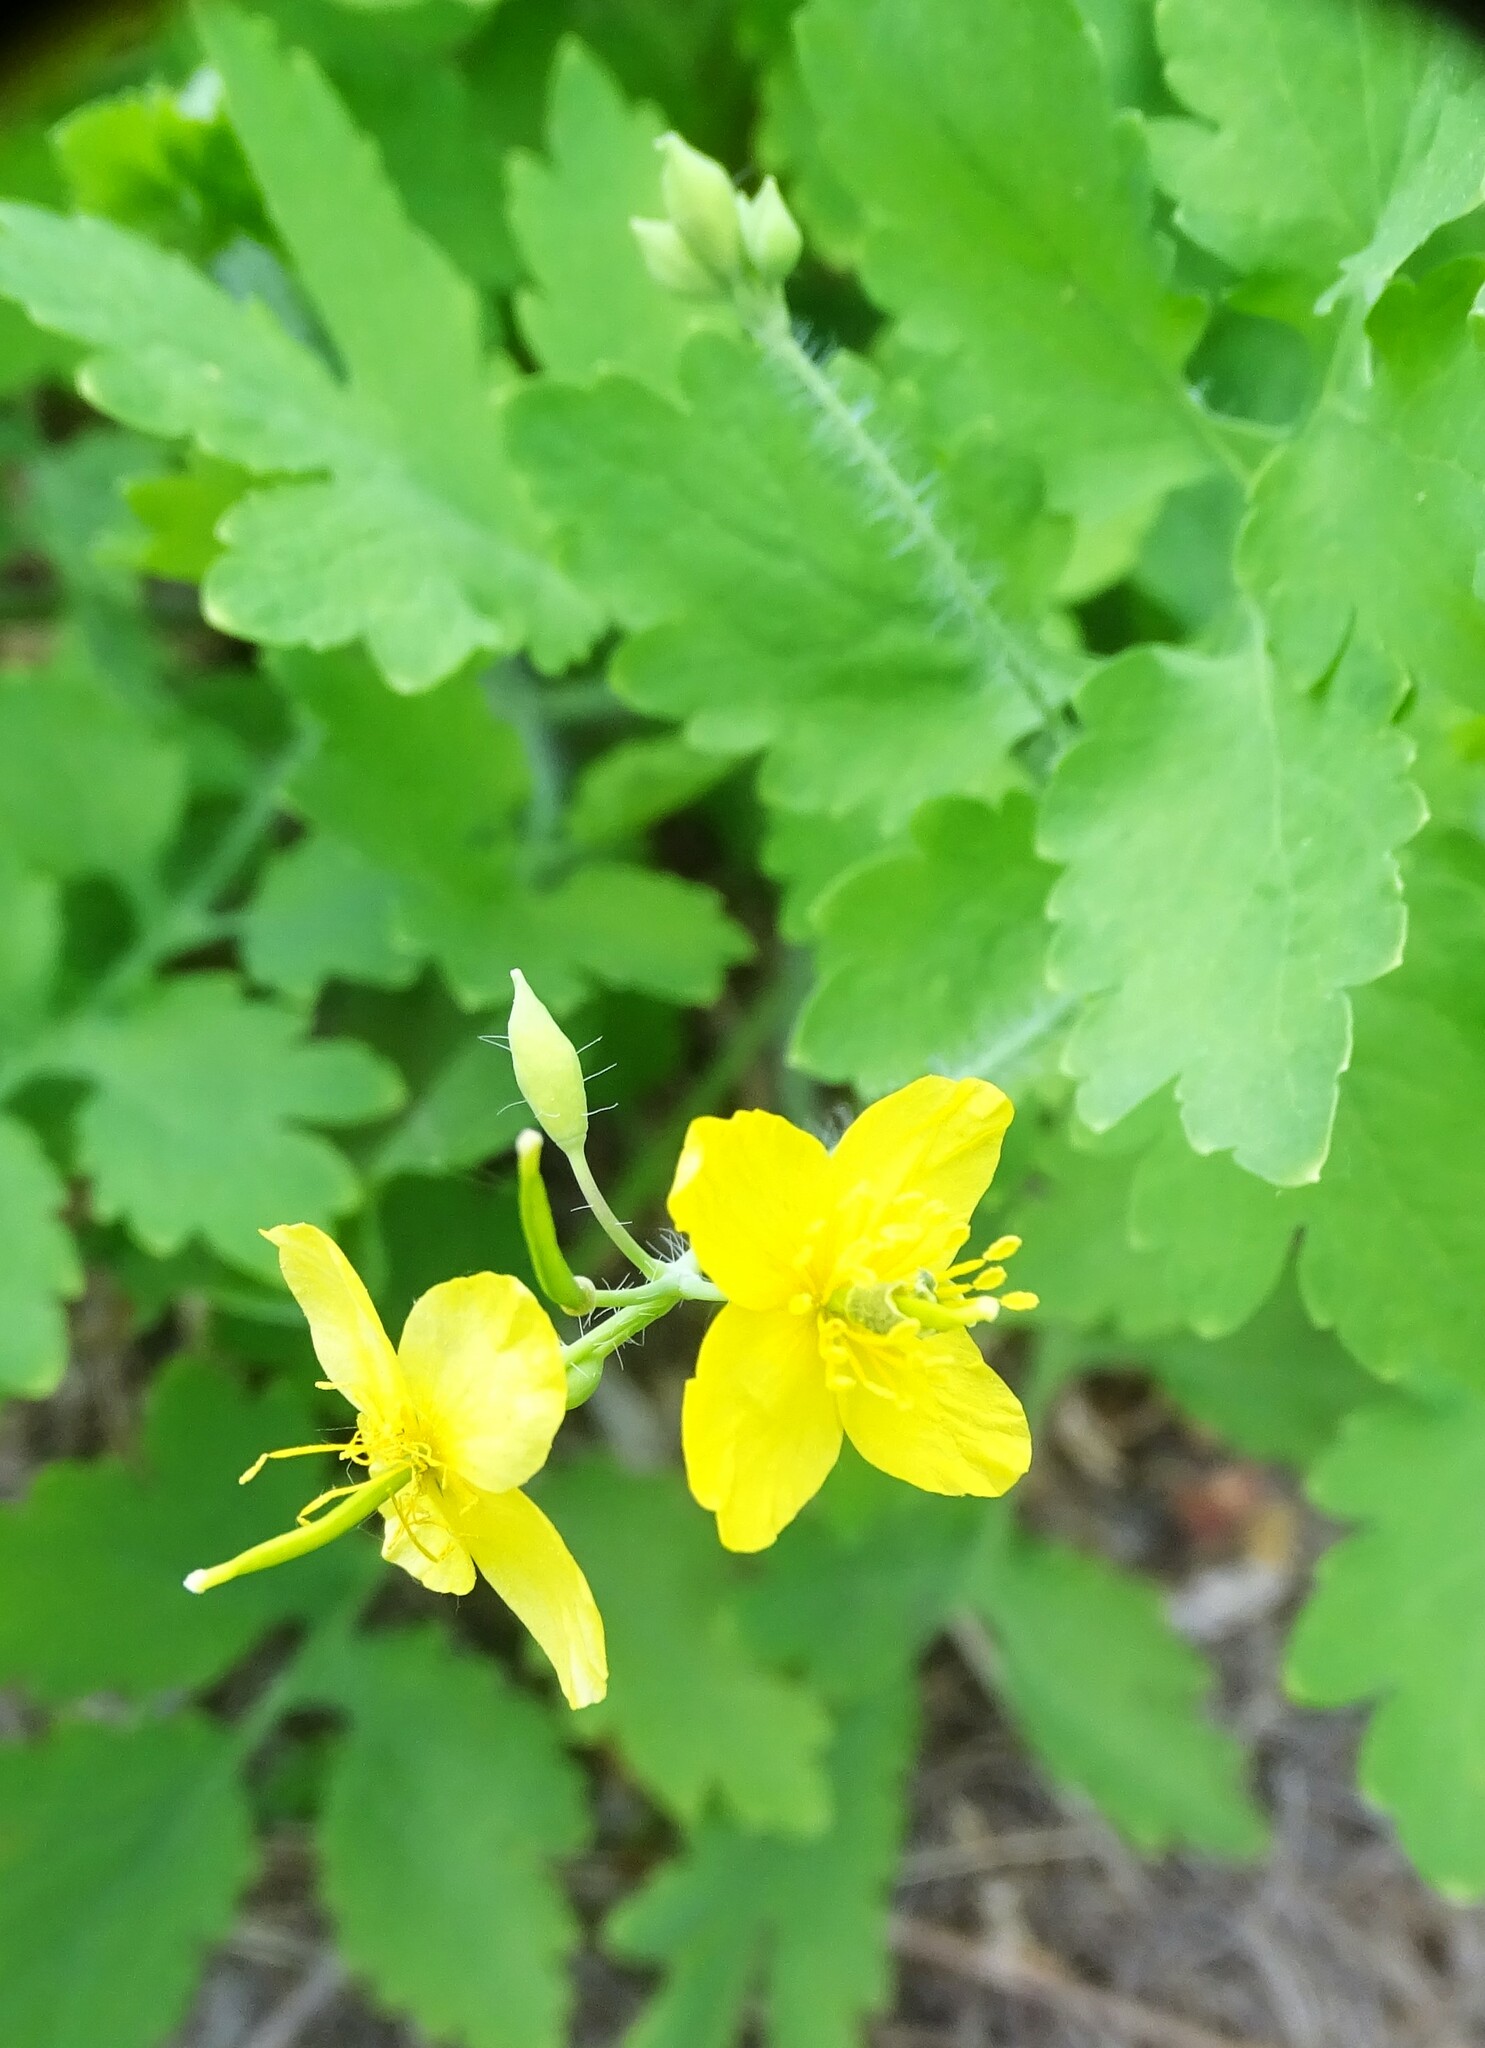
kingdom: Plantae
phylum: Tracheophyta
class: Magnoliopsida
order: Ranunculales
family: Papaveraceae
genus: Chelidonium
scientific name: Chelidonium majus
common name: Greater celandine
